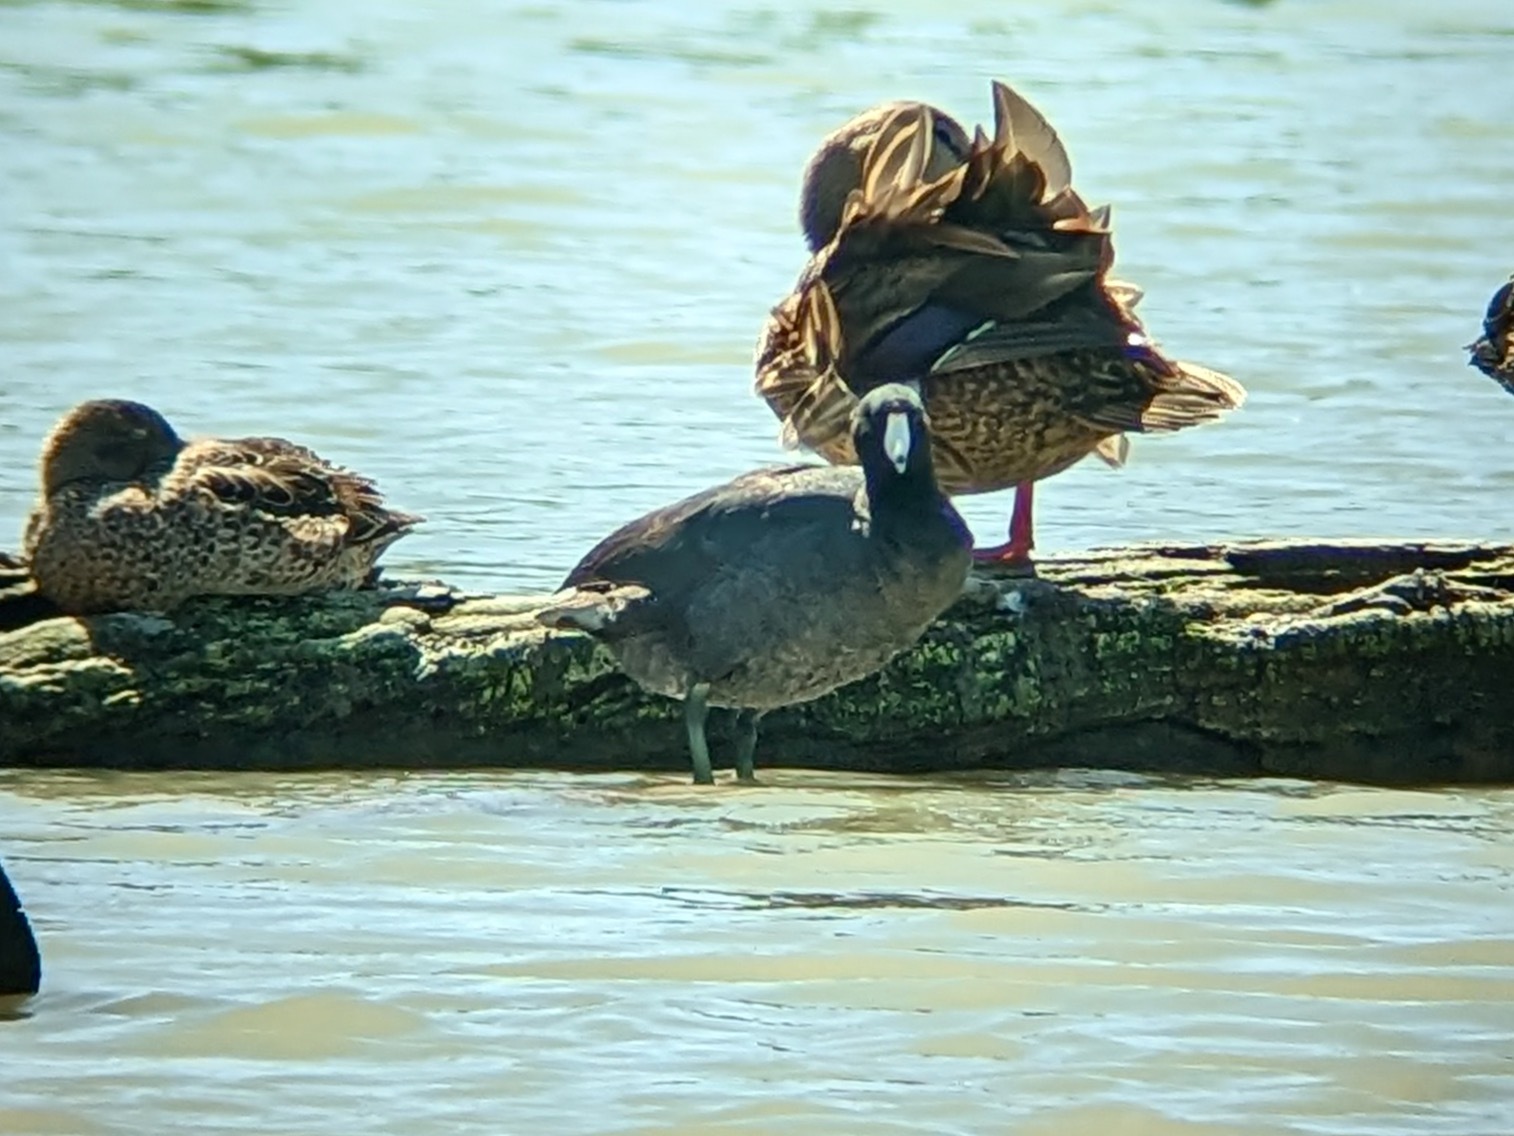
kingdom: Animalia
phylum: Chordata
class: Aves
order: Gruiformes
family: Rallidae
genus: Fulica
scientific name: Fulica americana
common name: American coot
